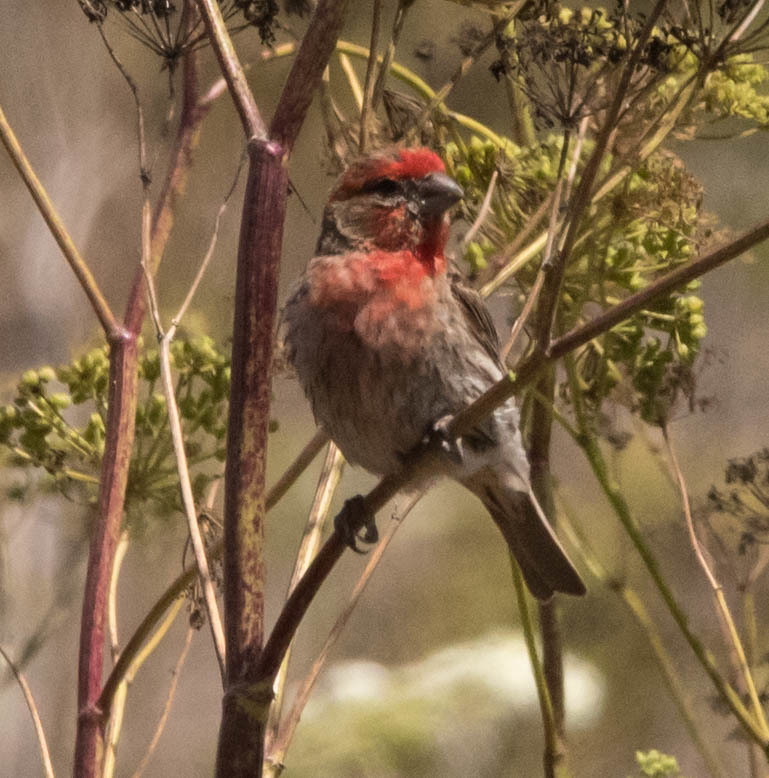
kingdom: Animalia
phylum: Chordata
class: Aves
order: Passeriformes
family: Fringillidae
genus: Haemorhous
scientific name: Haemorhous mexicanus
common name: House finch
